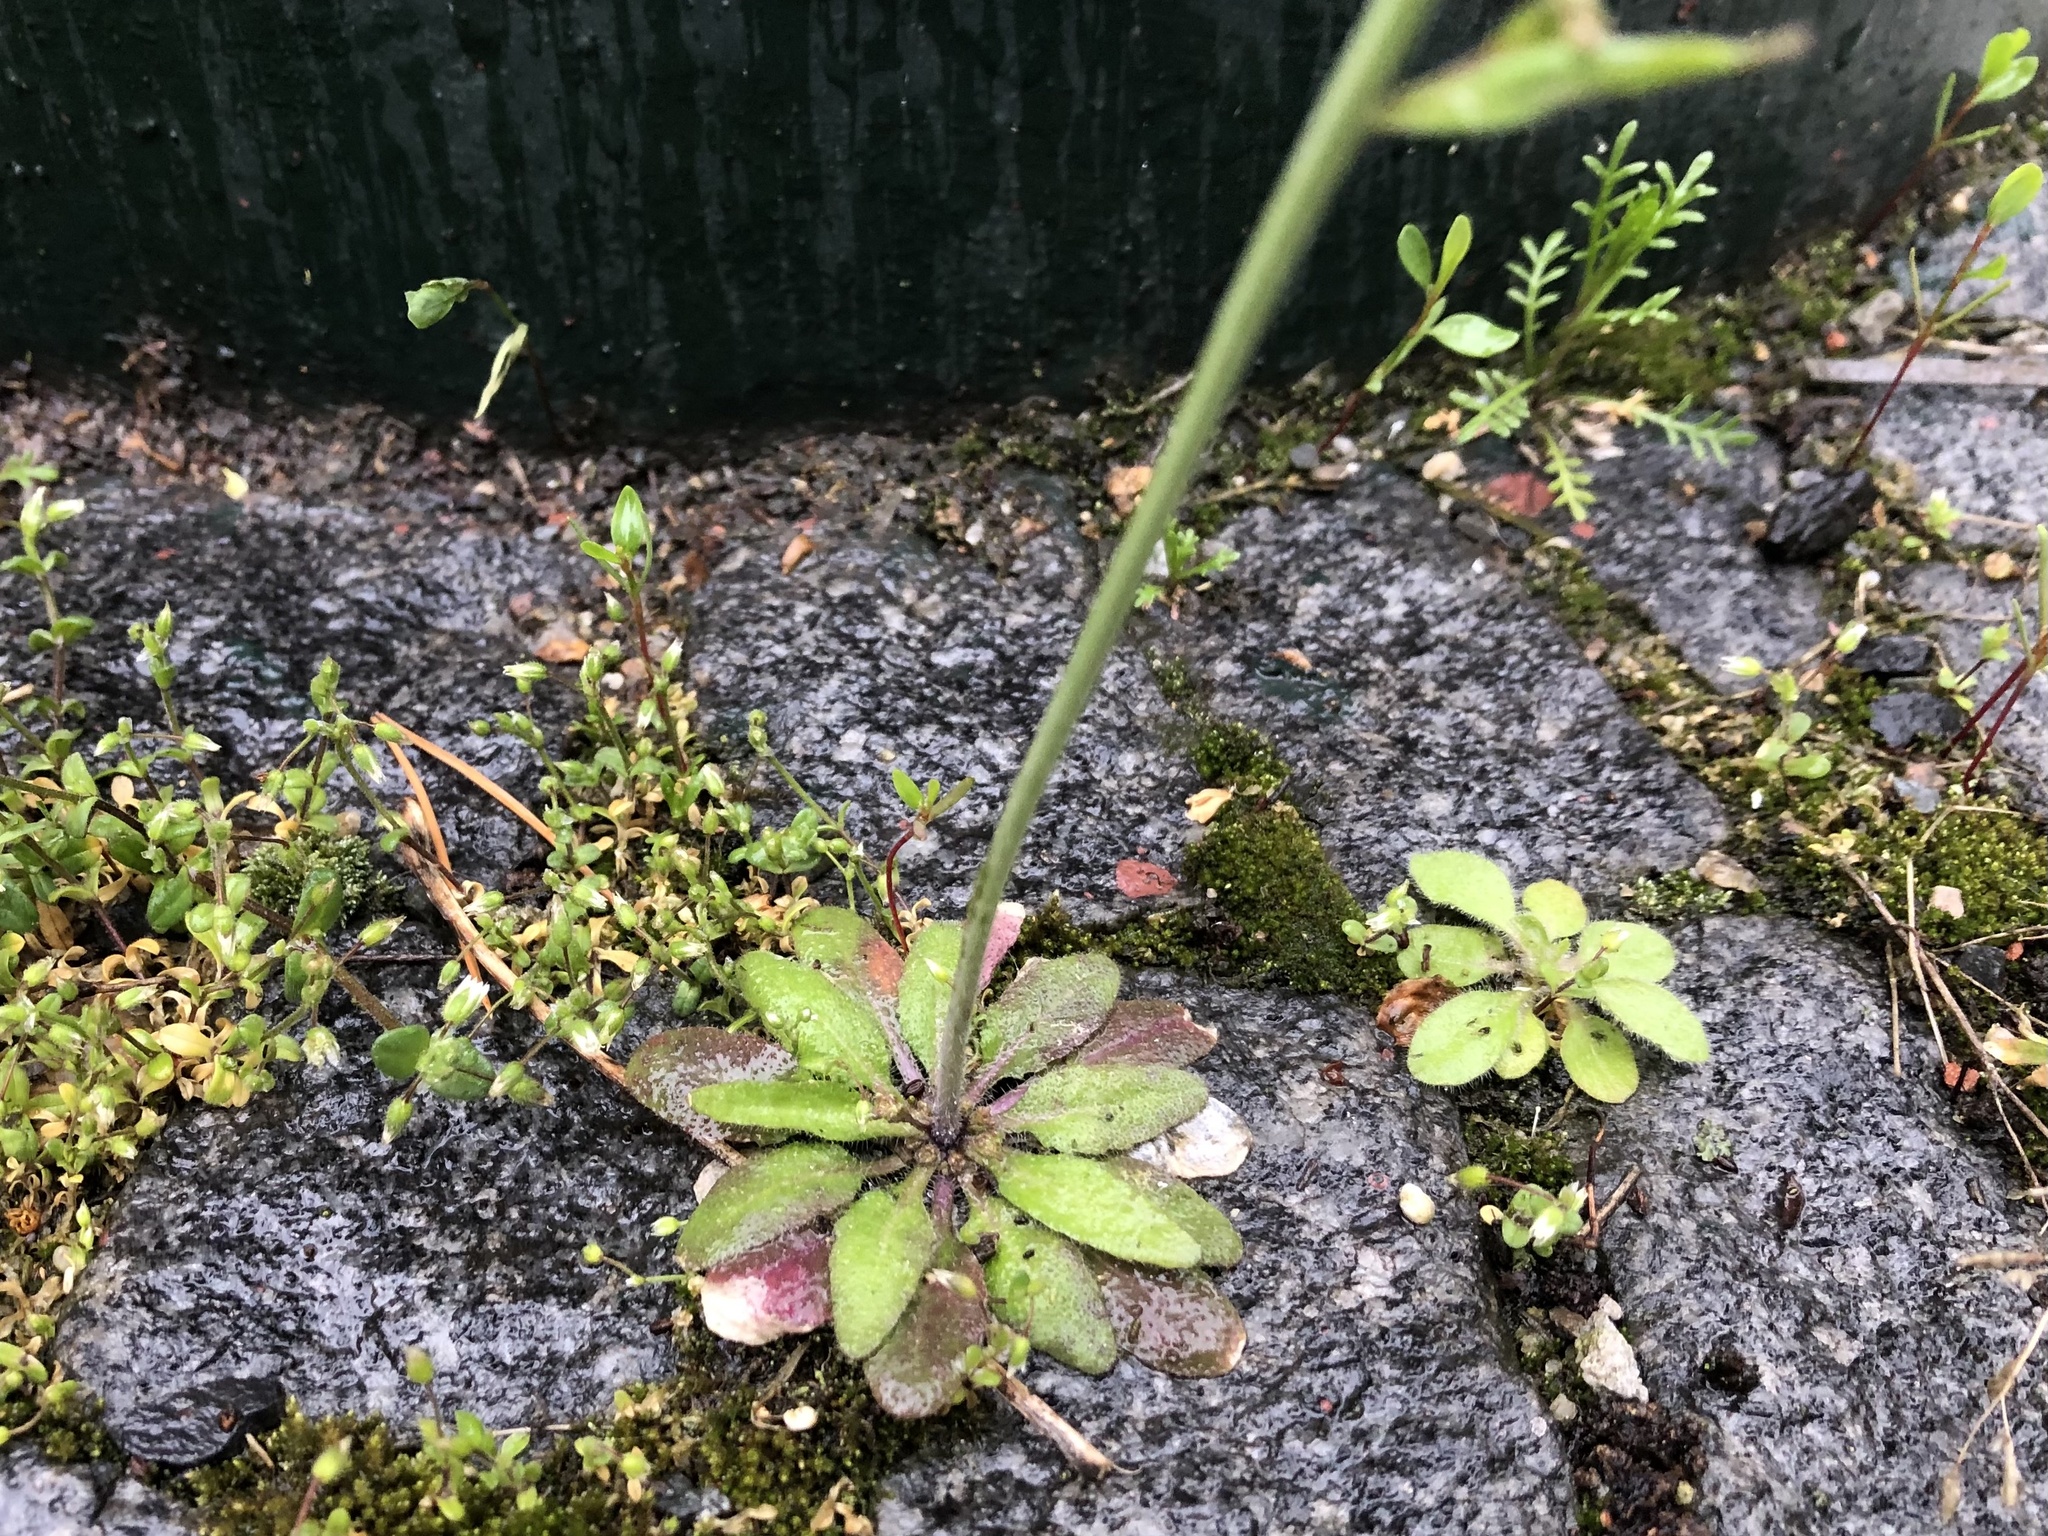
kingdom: Plantae
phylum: Tracheophyta
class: Magnoliopsida
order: Brassicales
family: Brassicaceae
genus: Arabidopsis
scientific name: Arabidopsis thaliana
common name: Thale cress
